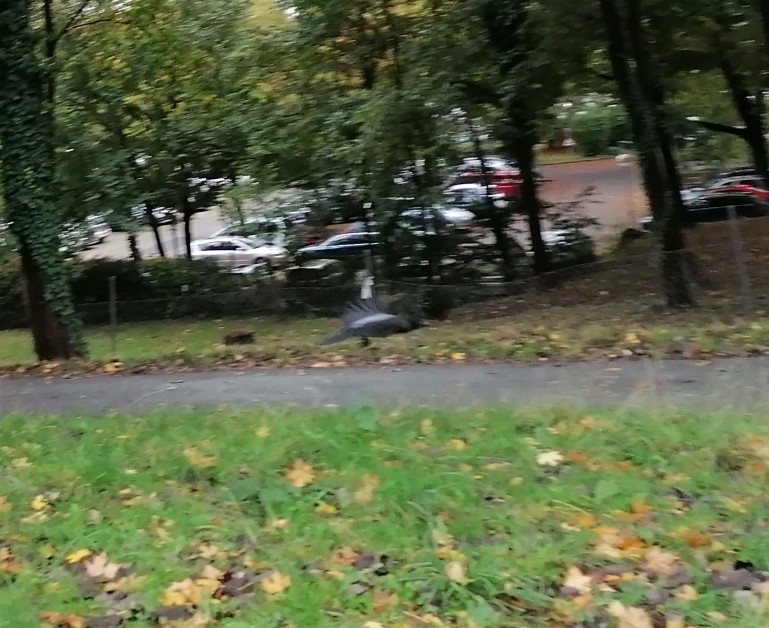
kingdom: Animalia
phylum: Chordata
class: Aves
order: Passeriformes
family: Corvidae
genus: Corvus
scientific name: Corvus cornix
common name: Hooded crow
